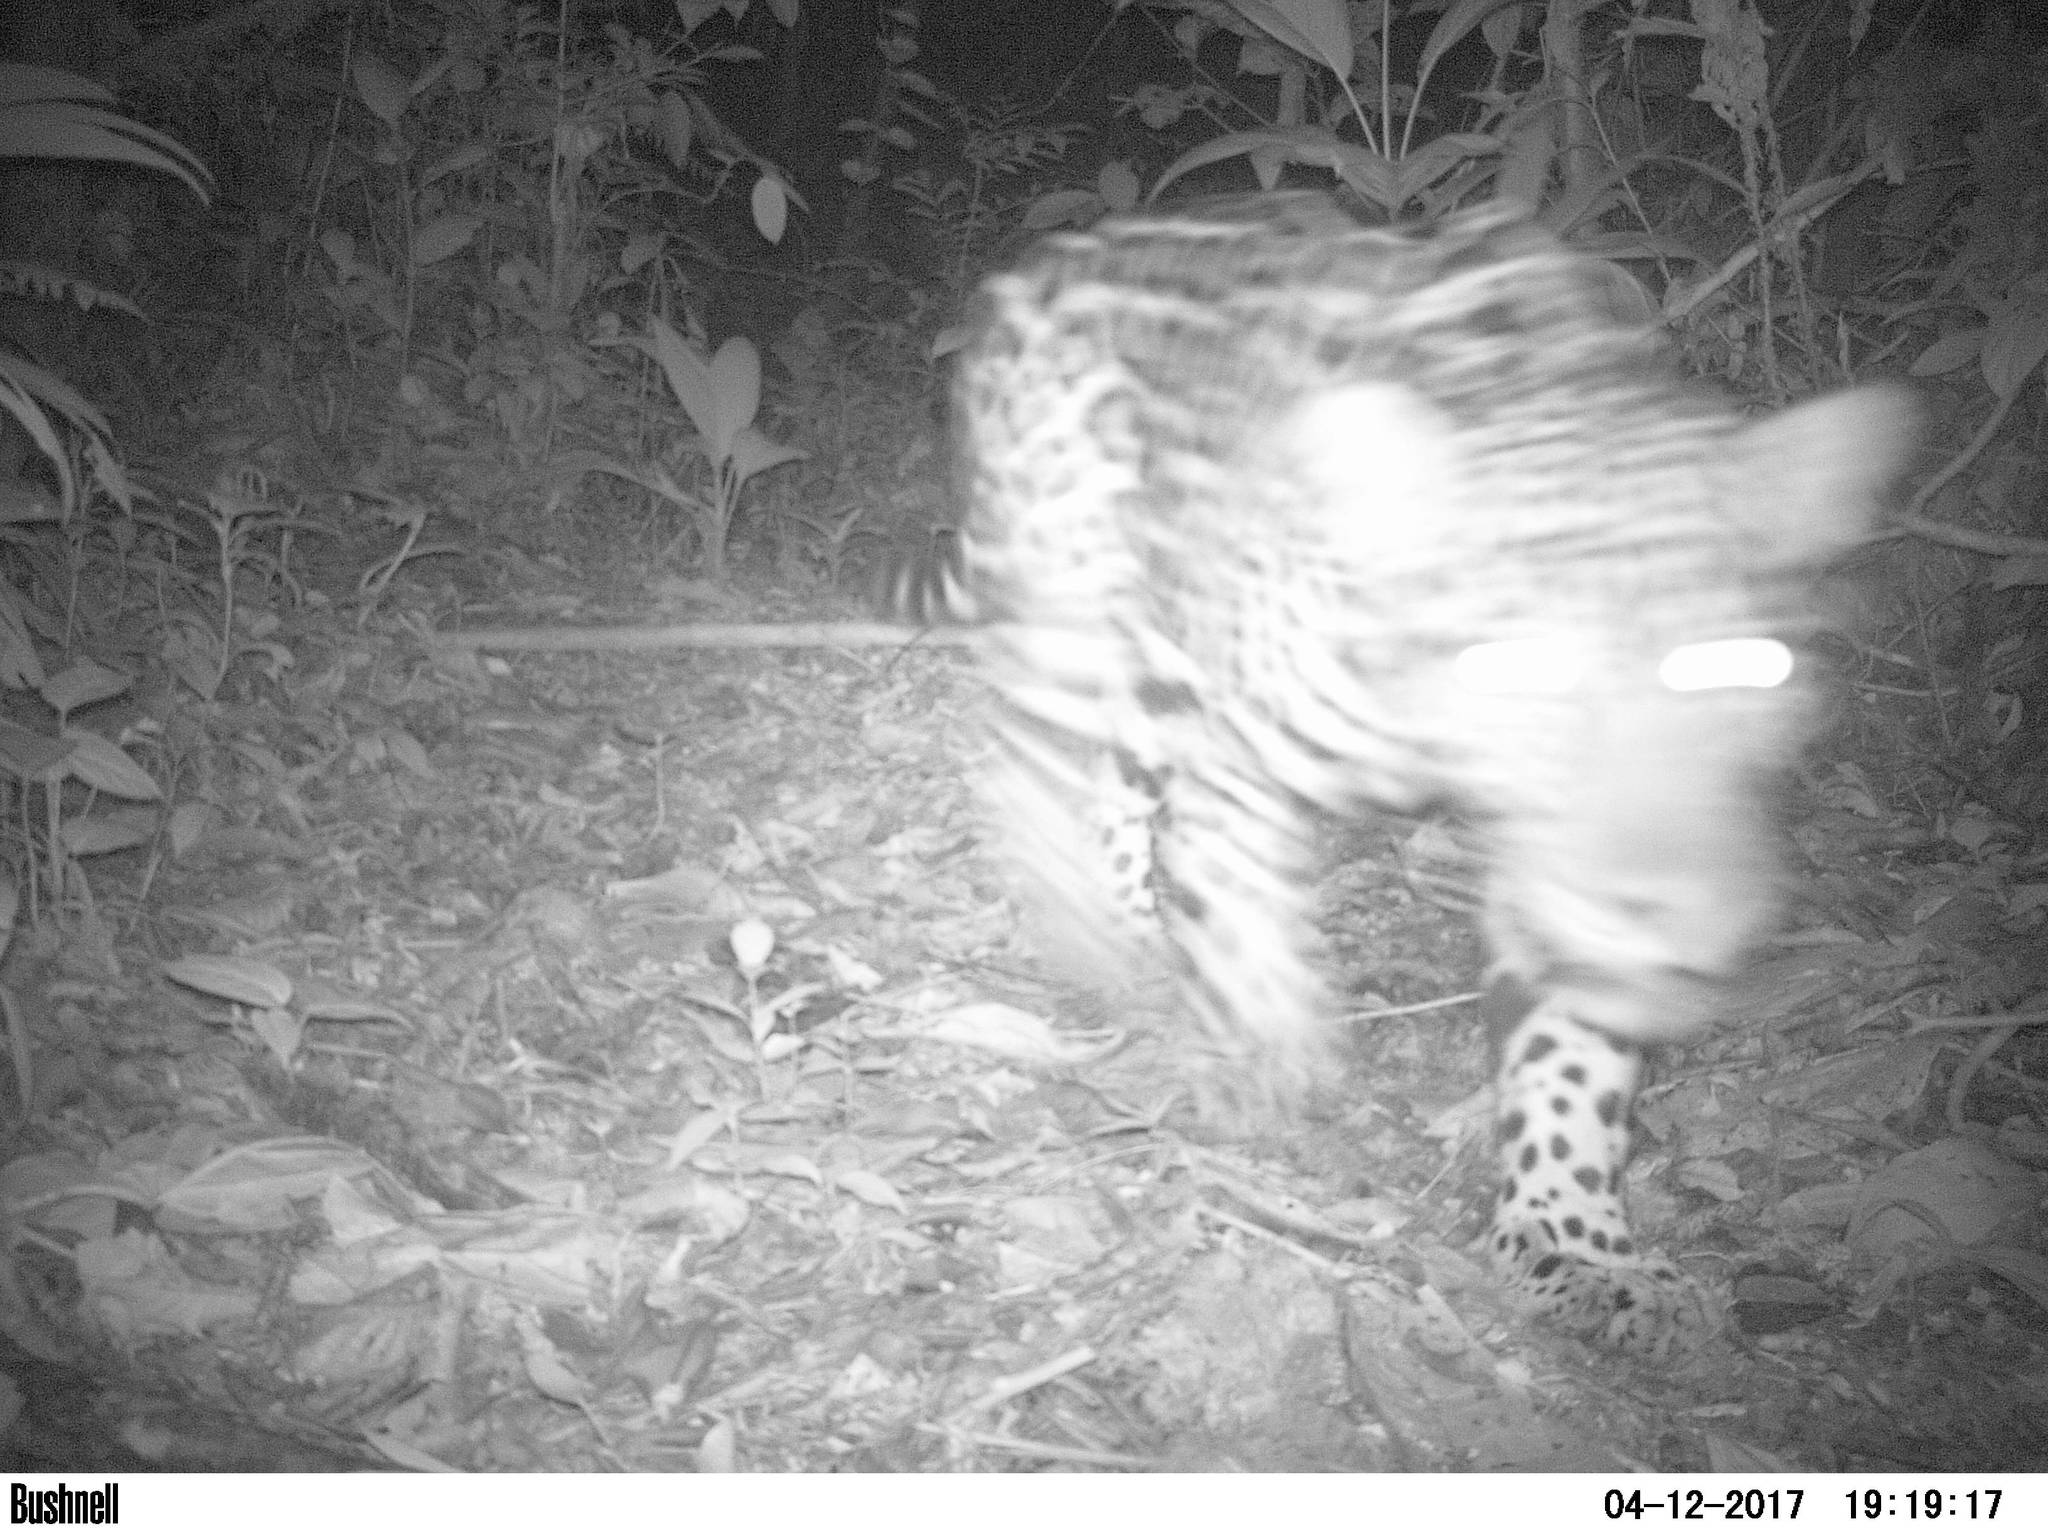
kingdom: Animalia
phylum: Chordata
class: Mammalia
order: Carnivora
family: Felidae
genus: Panthera
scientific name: Panthera onca
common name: Jaguar
